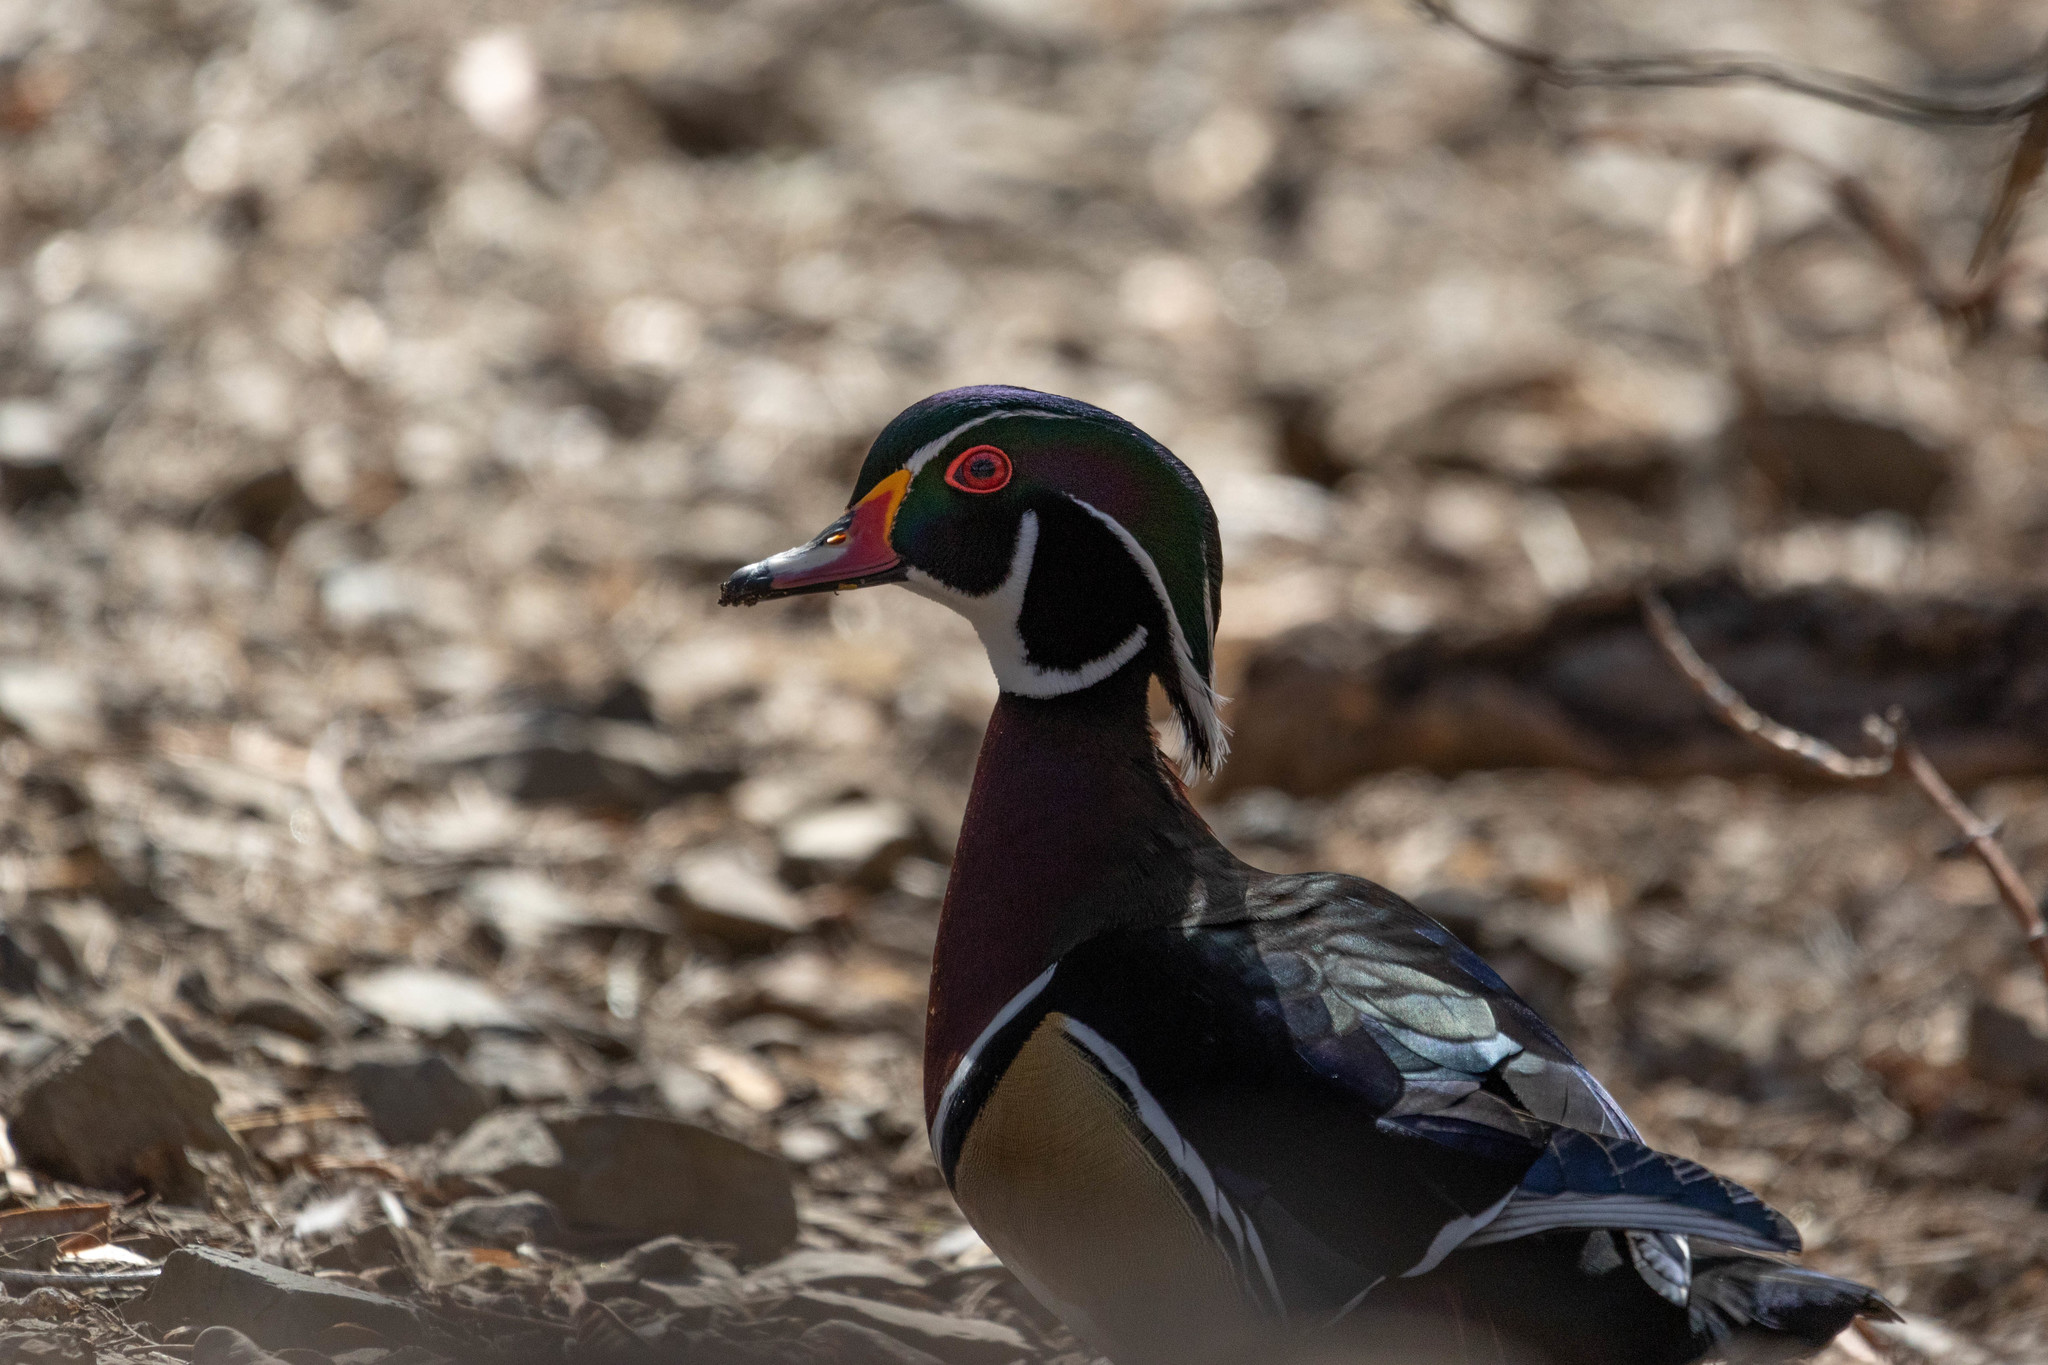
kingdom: Animalia
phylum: Chordata
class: Aves
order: Anseriformes
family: Anatidae
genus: Aix
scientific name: Aix sponsa
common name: Wood duck
